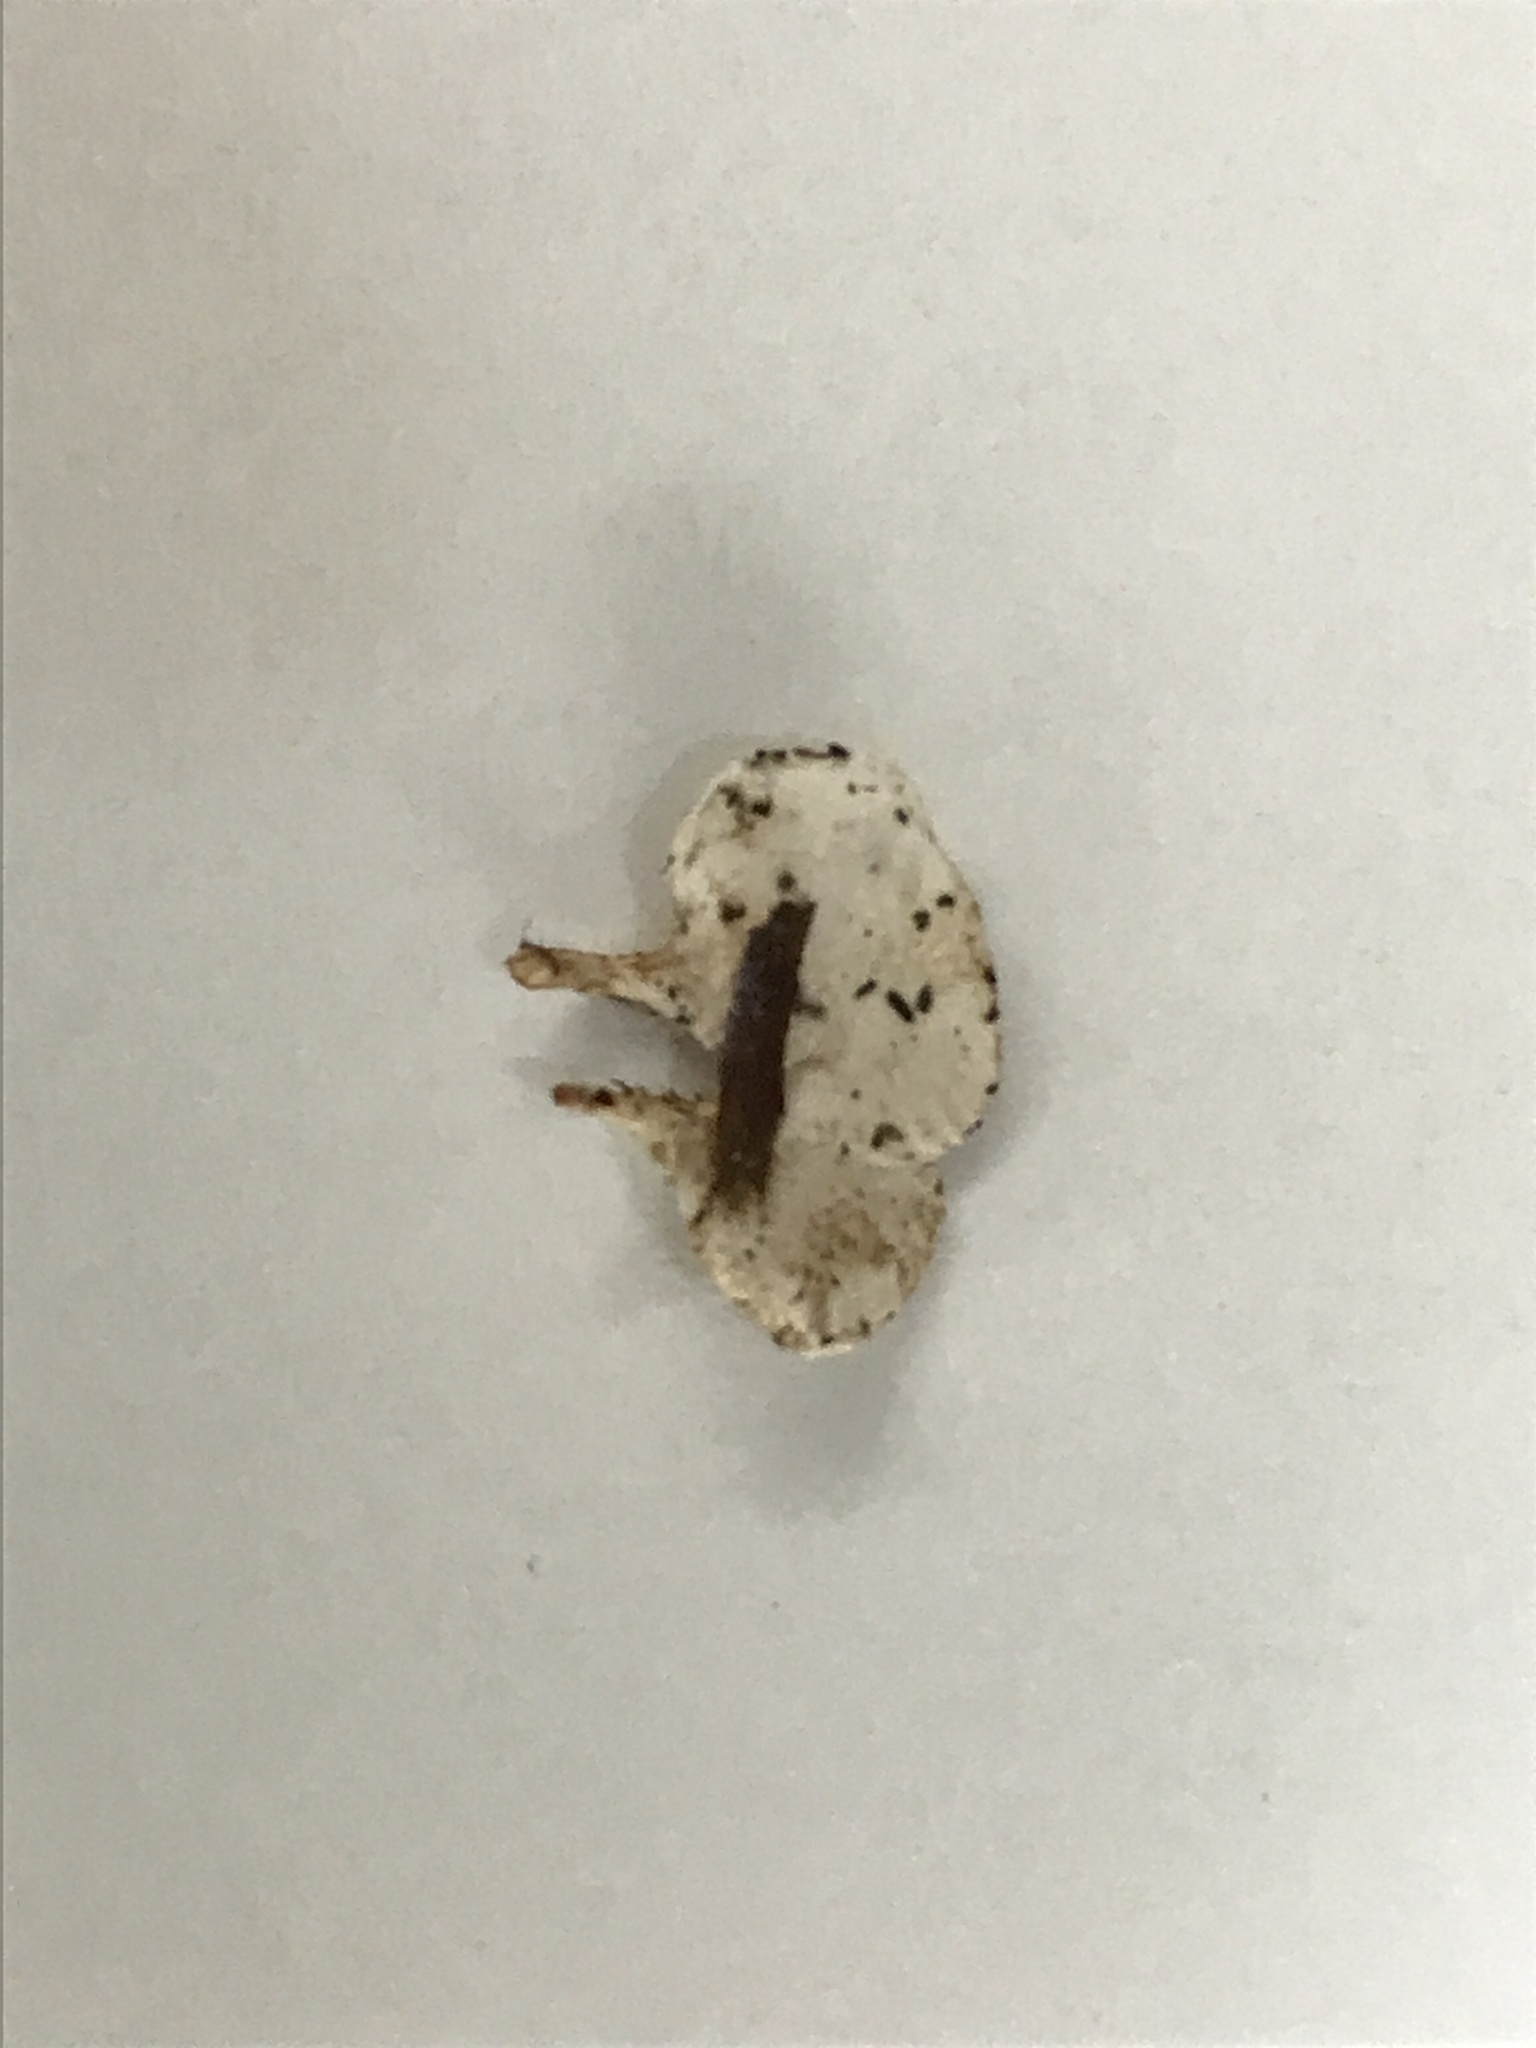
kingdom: Fungi
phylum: Basidiomycota
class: Agaricomycetes
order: Gomphales
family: Clavariadelphaceae
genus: Beenakia
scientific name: Beenakia dacostae
